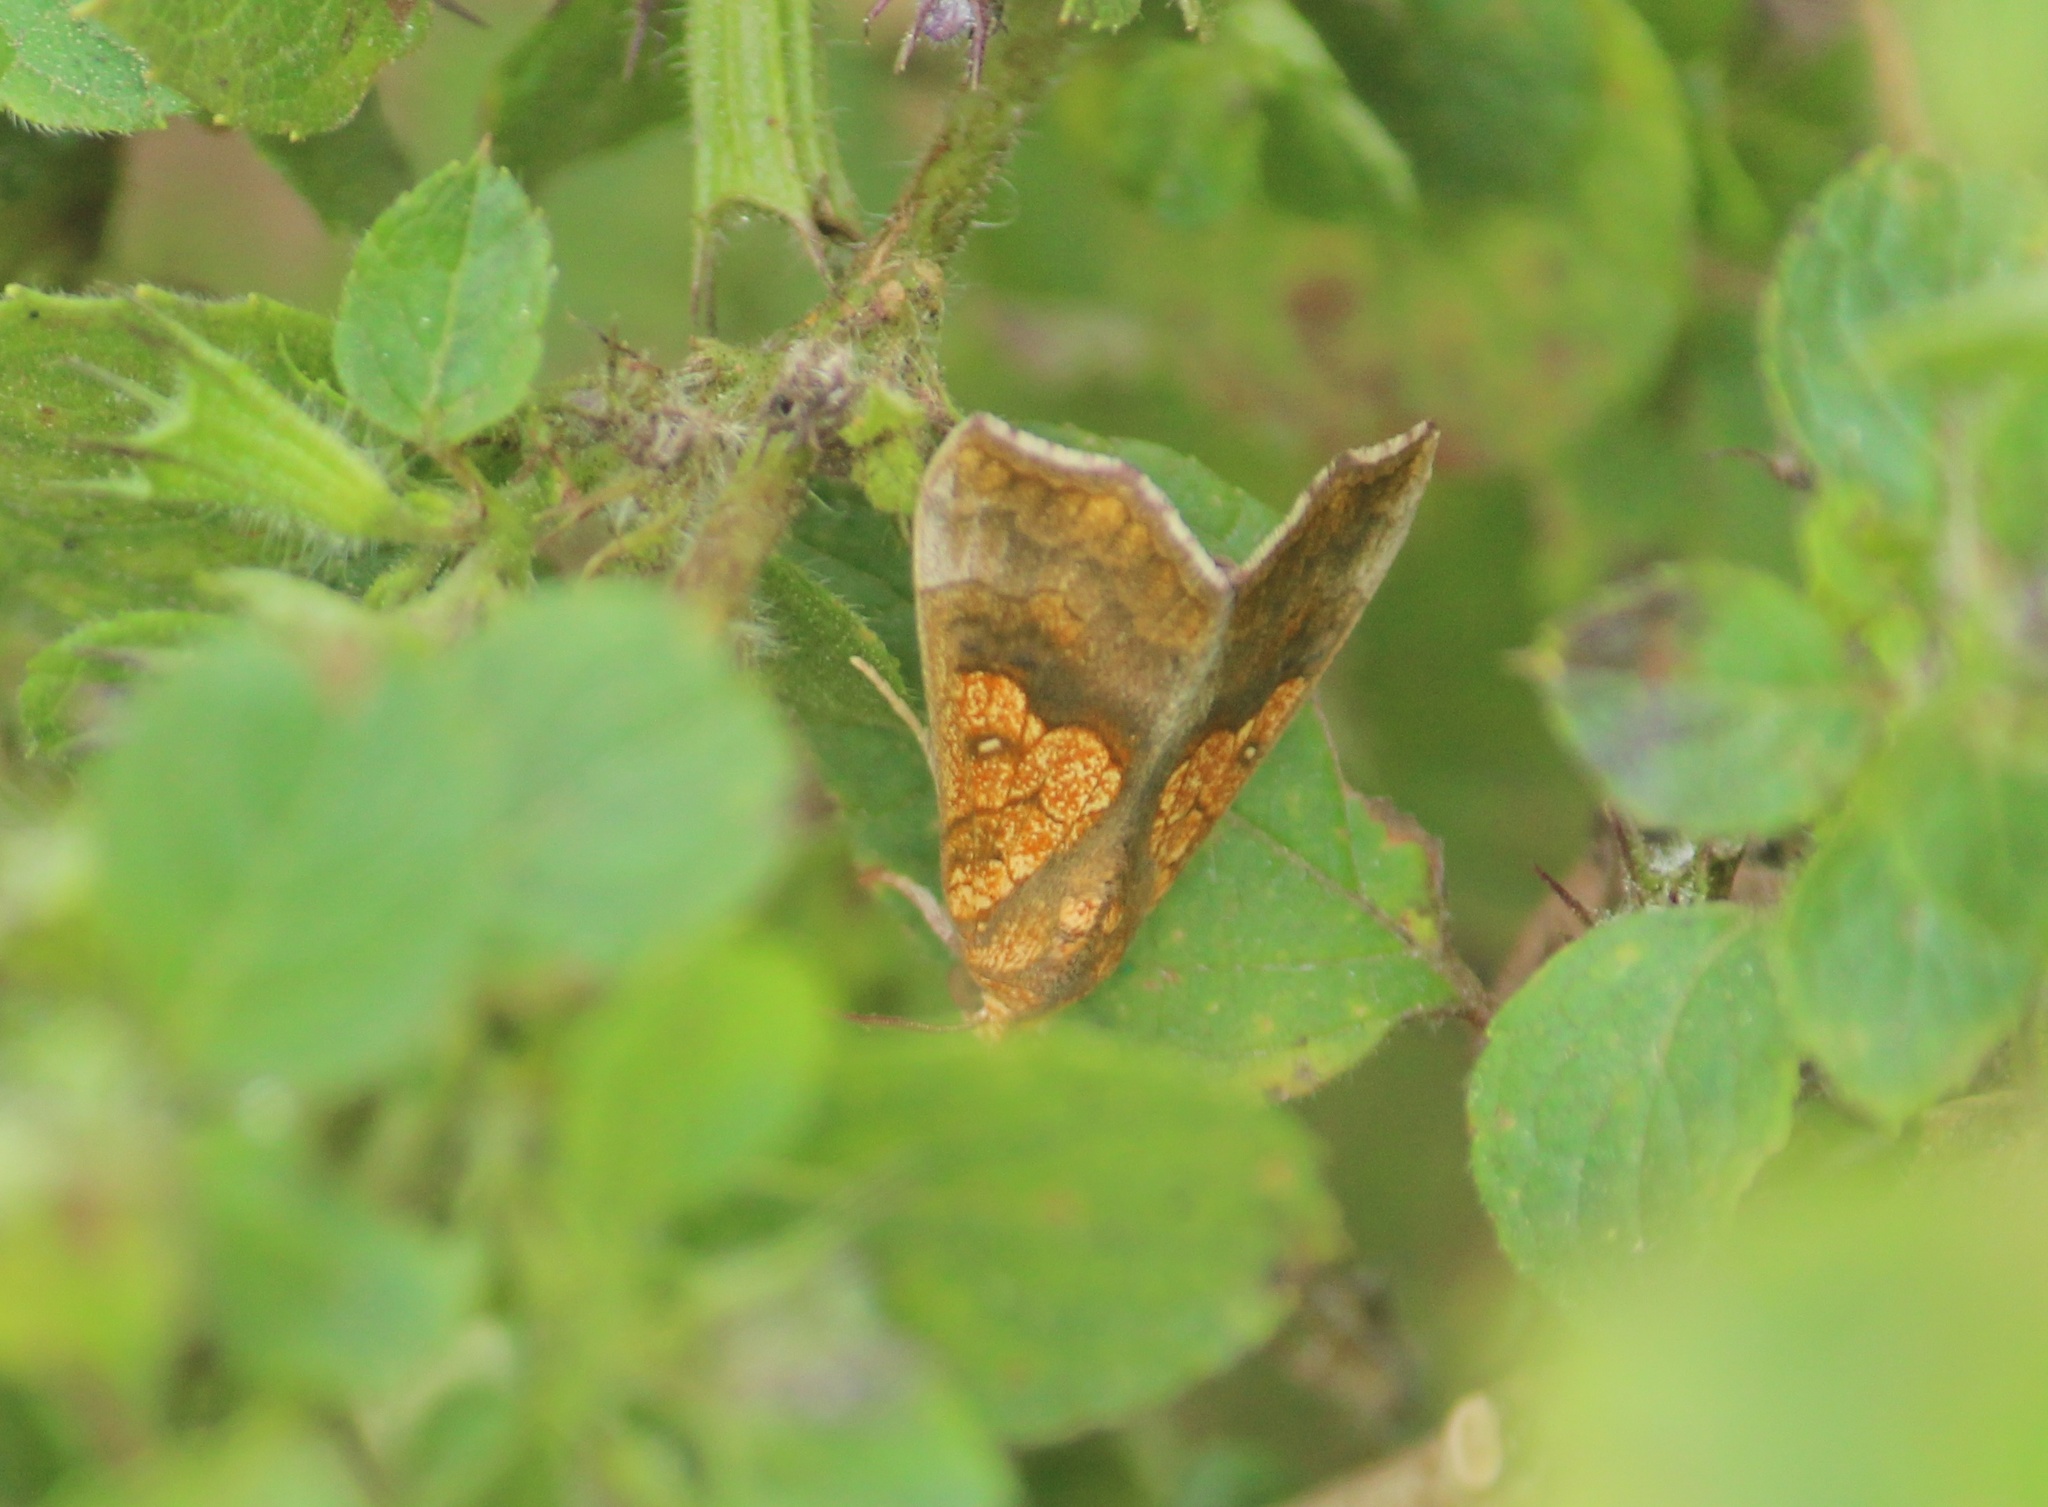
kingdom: Animalia
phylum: Arthropoda
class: Insecta
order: Lepidoptera
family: Erebidae
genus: Anomis
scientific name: Anomis flava
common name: Moth
